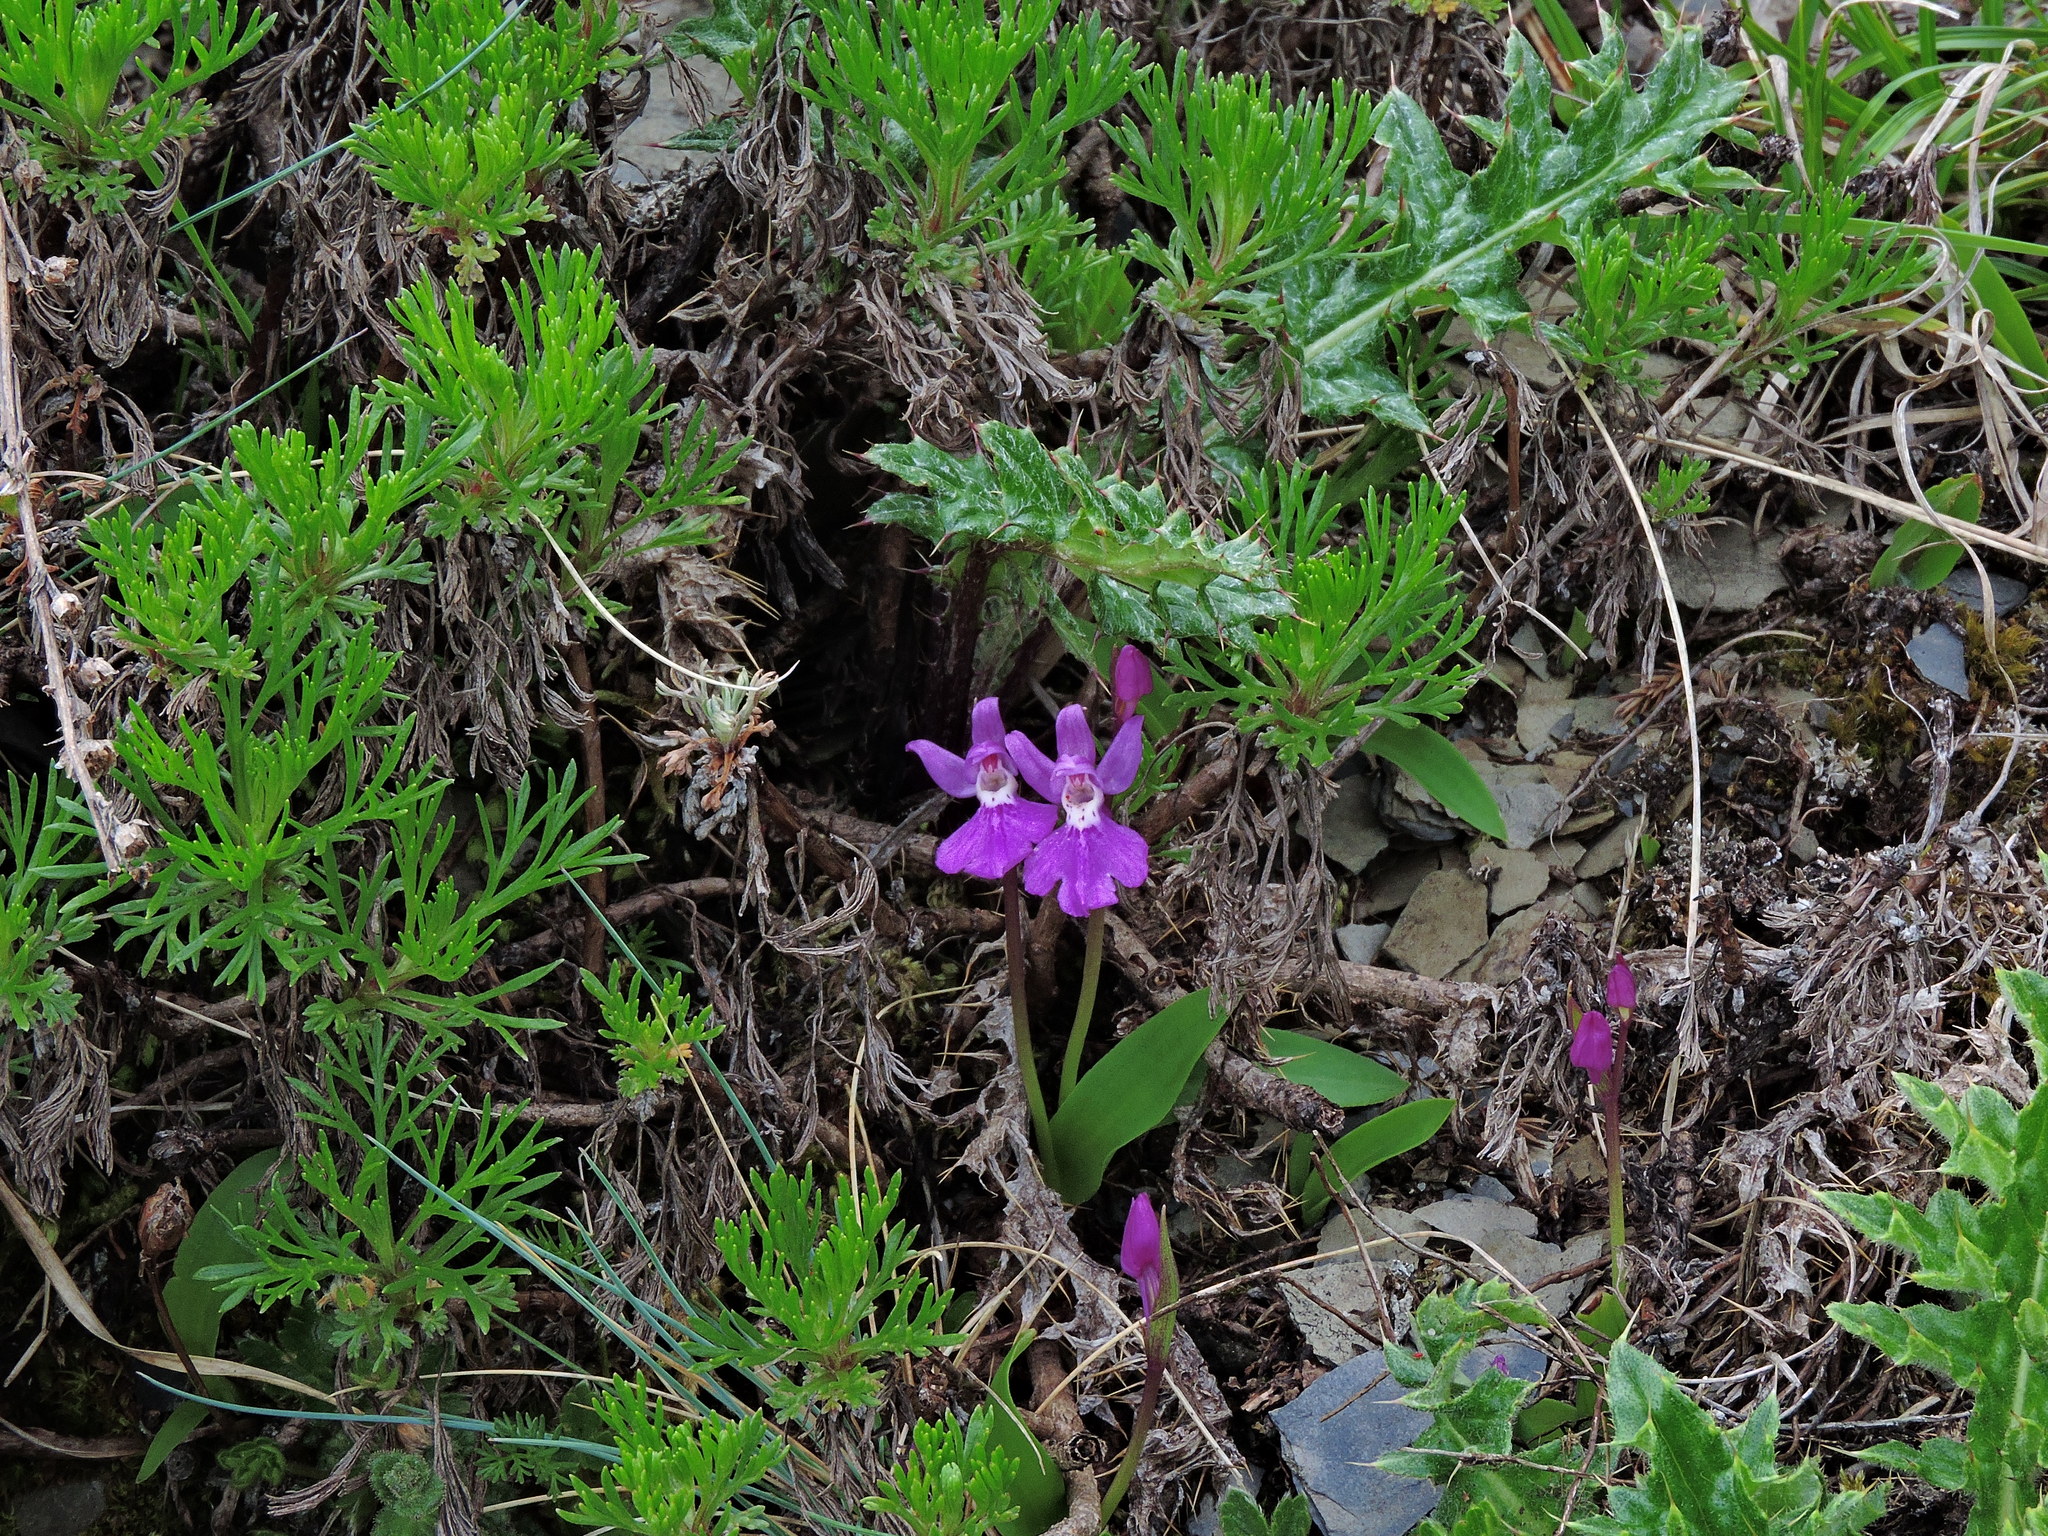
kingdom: Plantae
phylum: Tracheophyta
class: Liliopsida
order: Asparagales
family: Orchidaceae
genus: Hemipilia
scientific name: Hemipilia kiraishiensis
